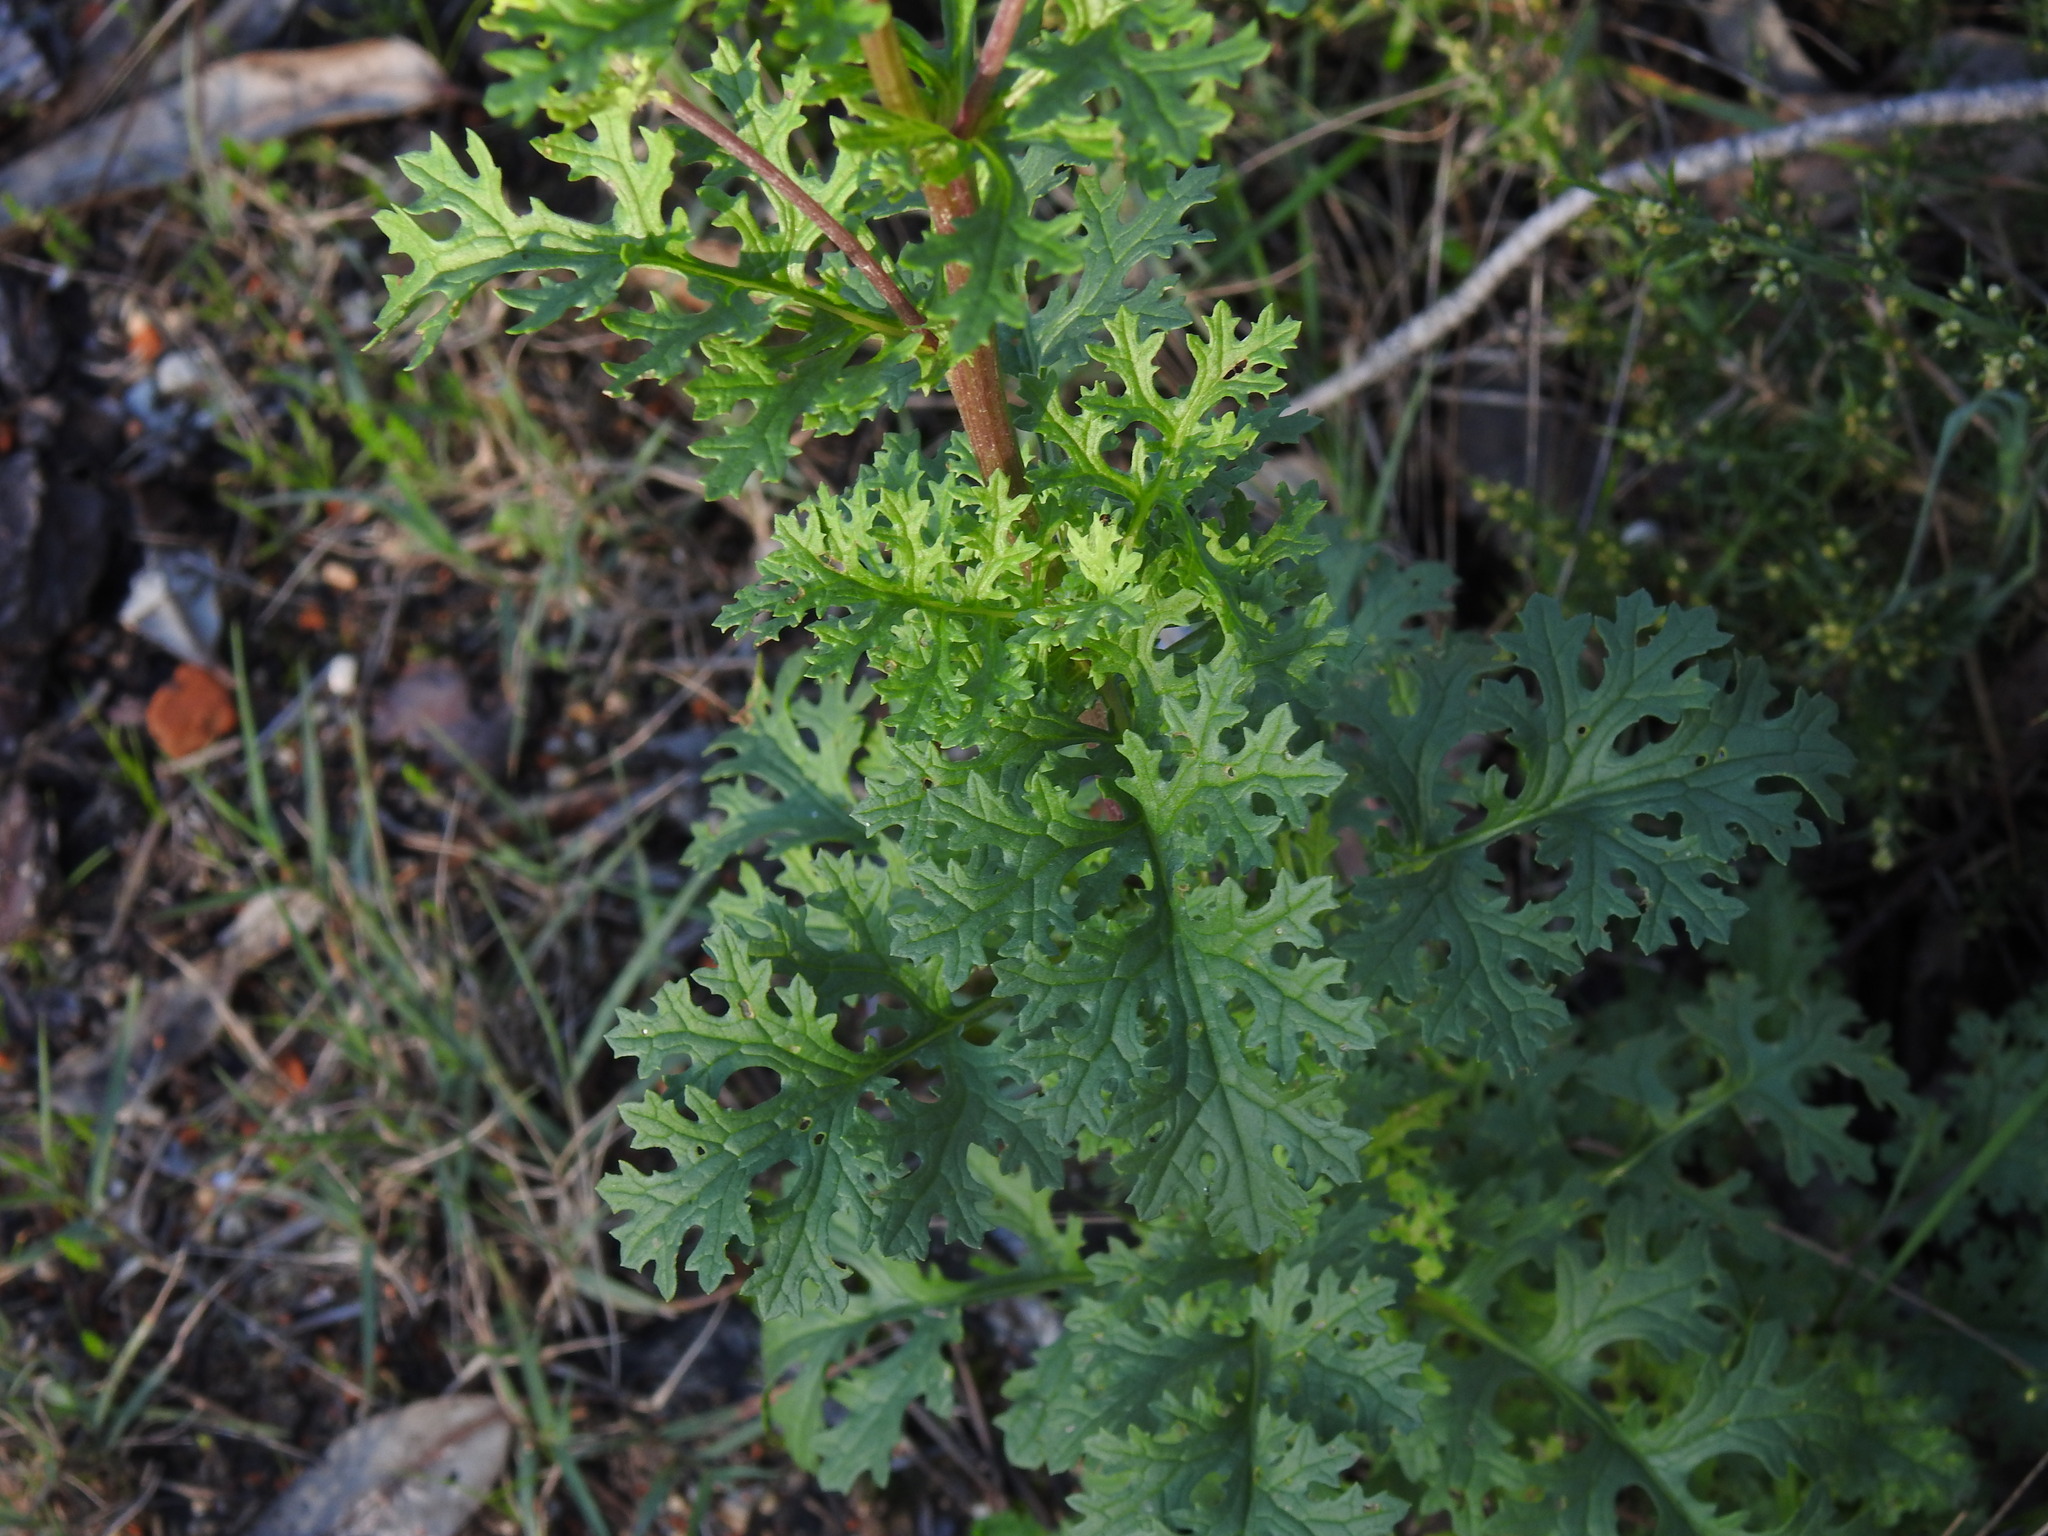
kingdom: Plantae
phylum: Tracheophyta
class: Magnoliopsida
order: Asterales
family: Asteraceae
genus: Jacobaea
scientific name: Jacobaea vulgaris
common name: Stinking willie
